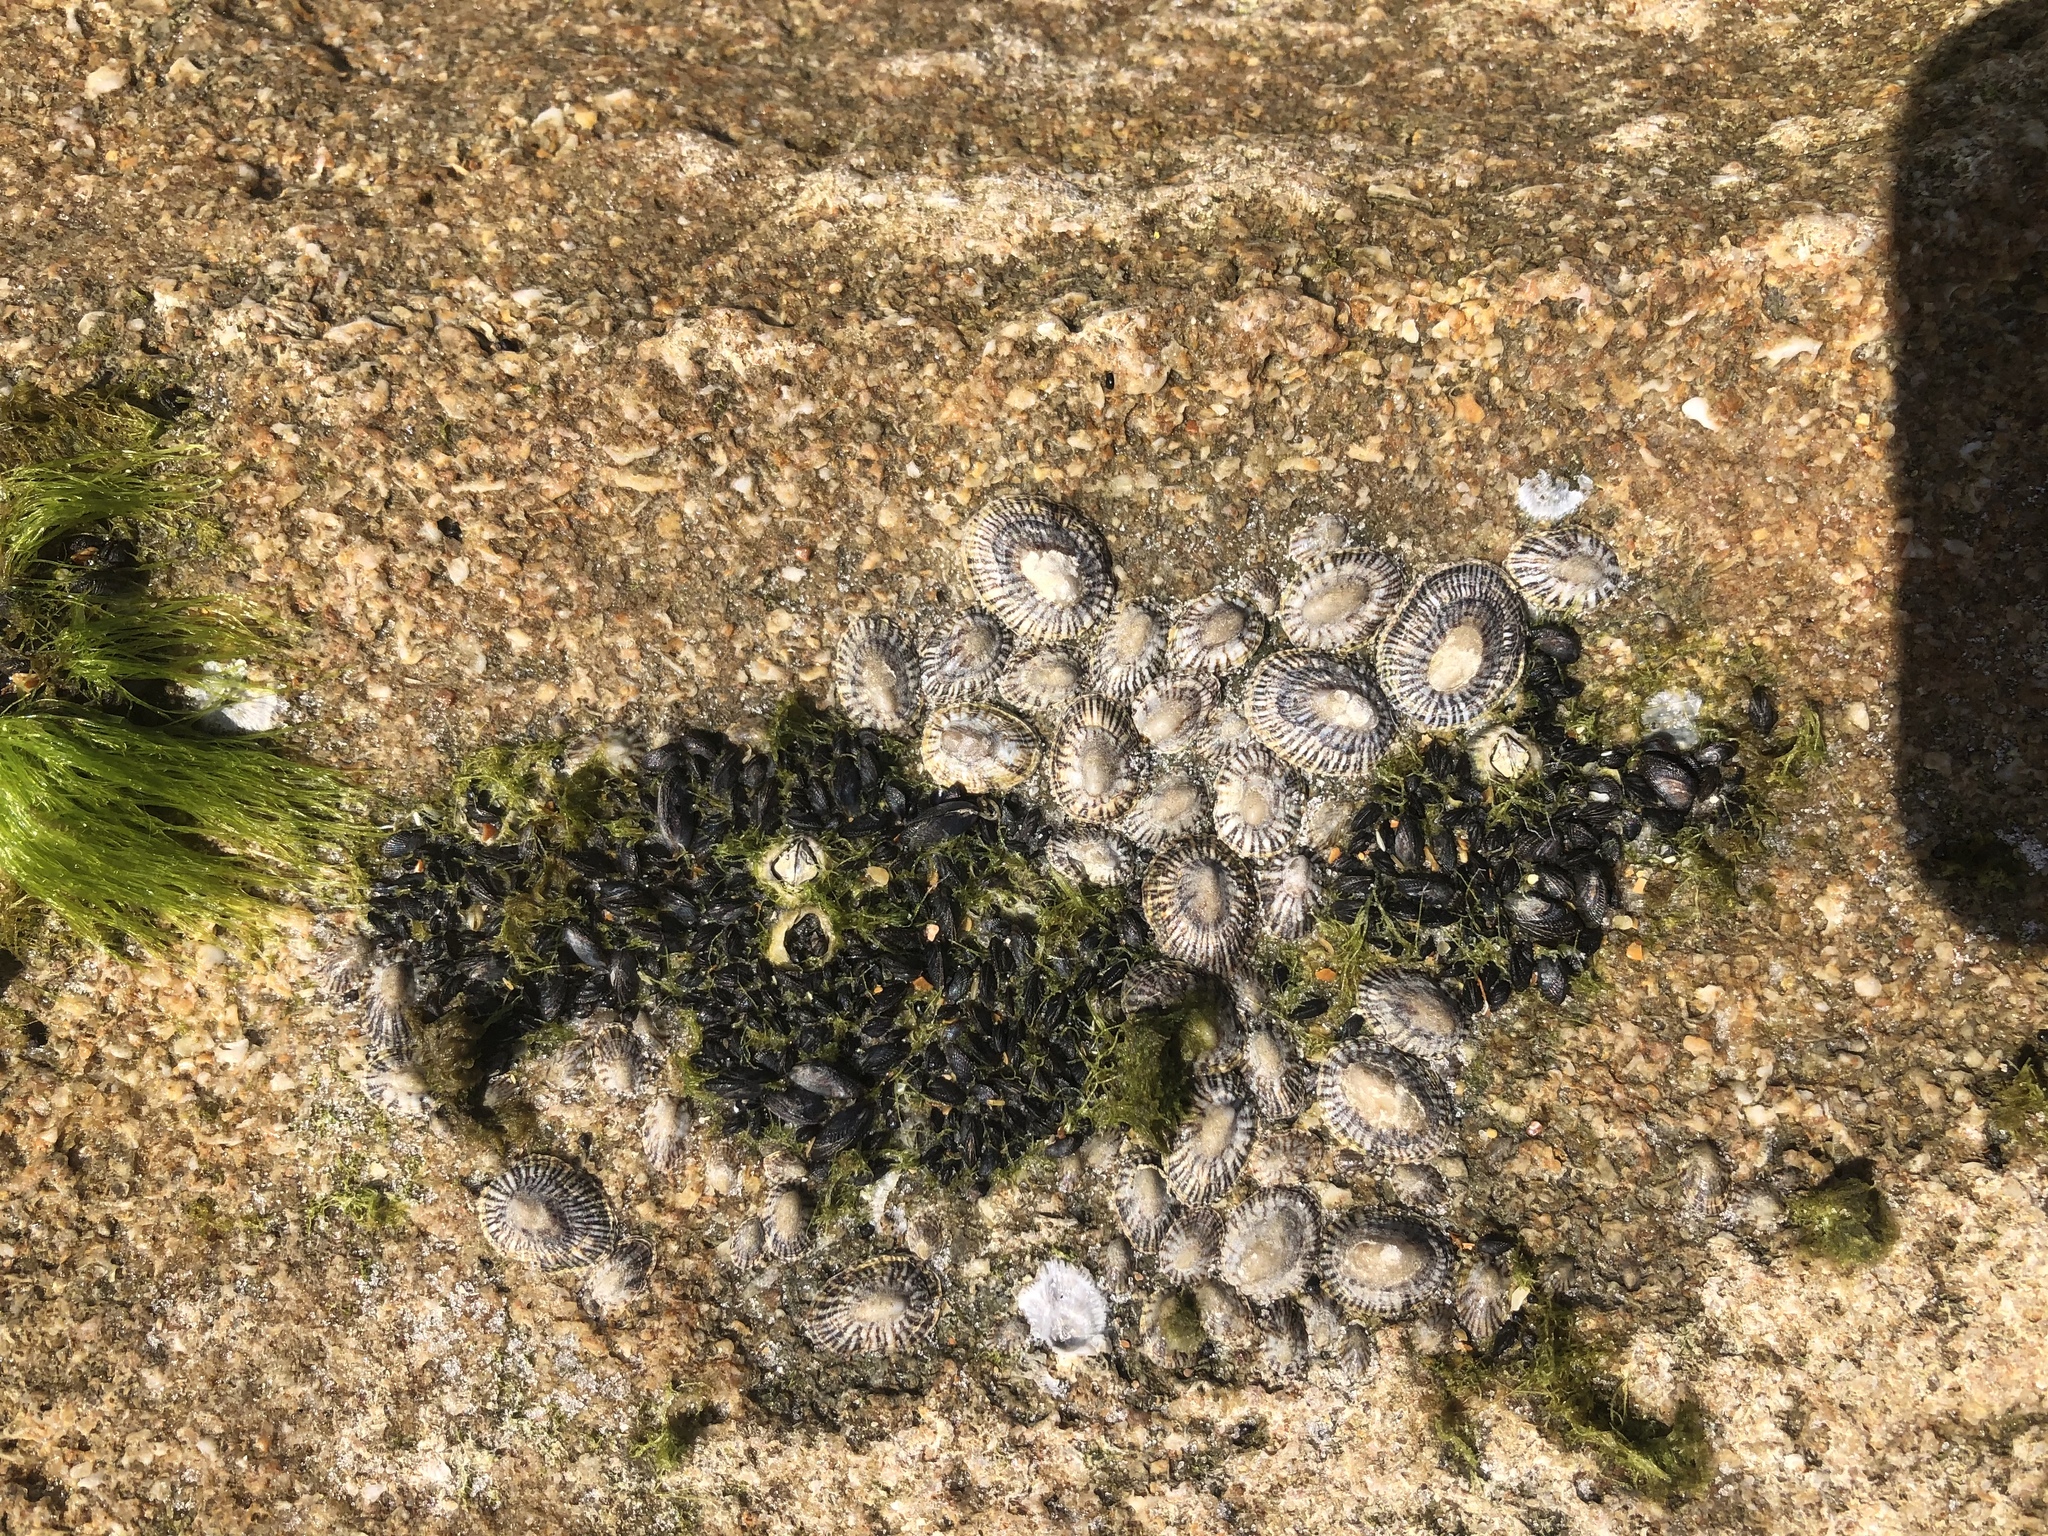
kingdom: Animalia
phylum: Mollusca
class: Gastropoda
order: Siphonariida
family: Siphonariidae
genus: Siphonaria
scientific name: Siphonaria naufragum
